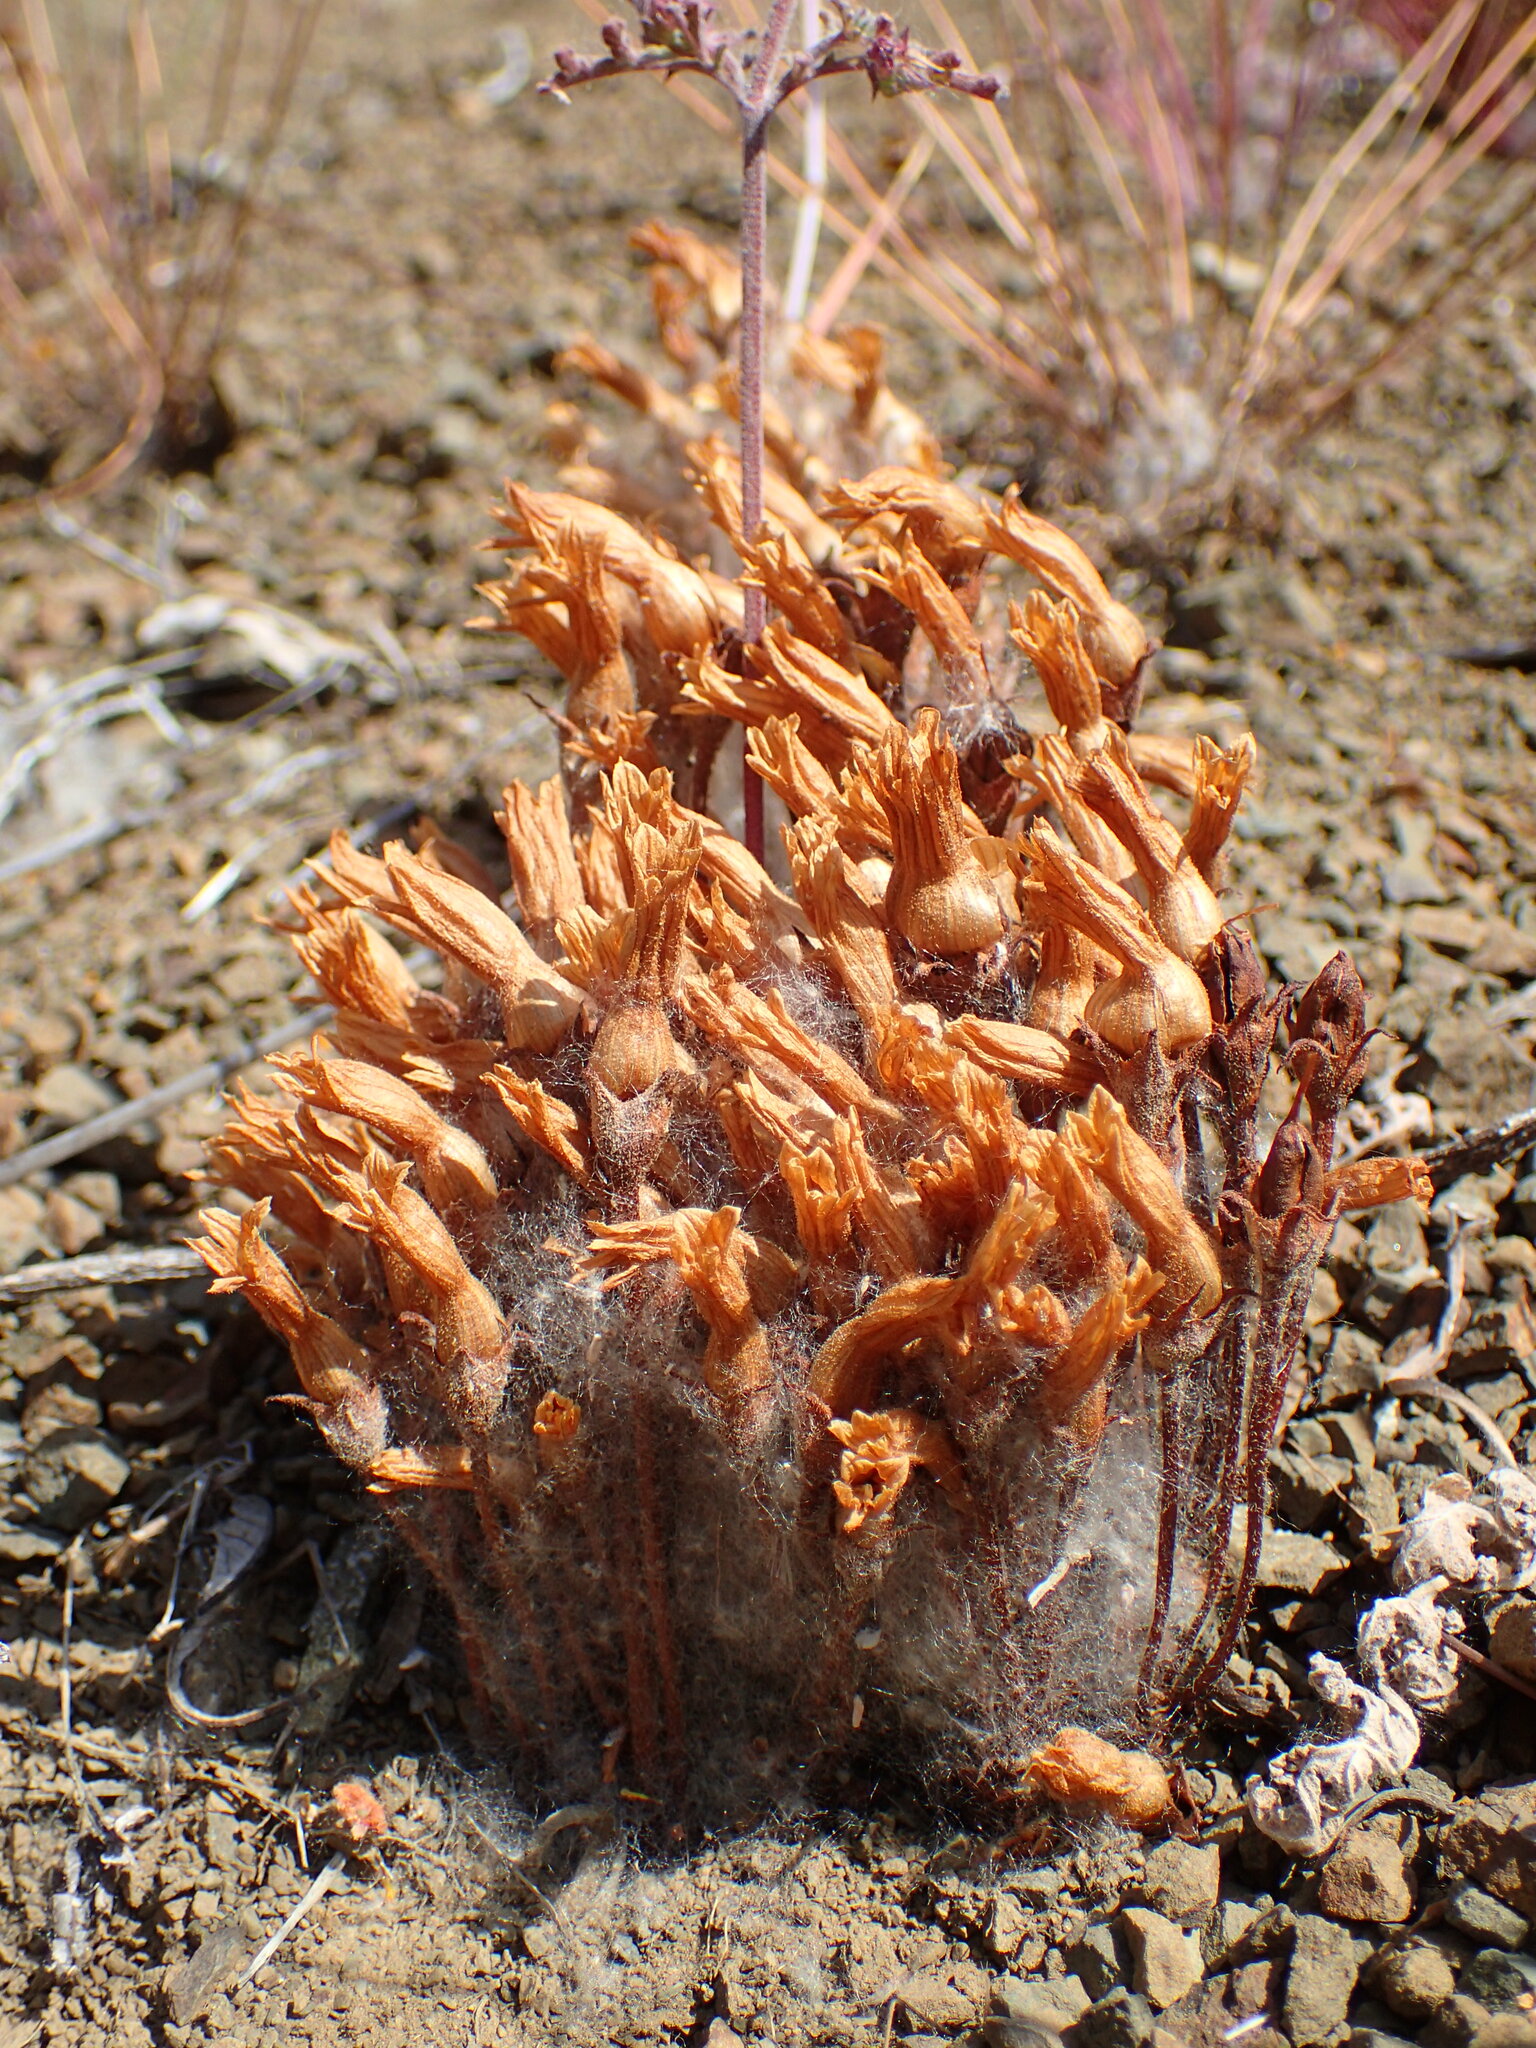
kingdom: Plantae
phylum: Tracheophyta
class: Magnoliopsida
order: Lamiales
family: Orobanchaceae
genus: Aphyllon
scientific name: Aphyllon franciscanum
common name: San francisco broomrape
